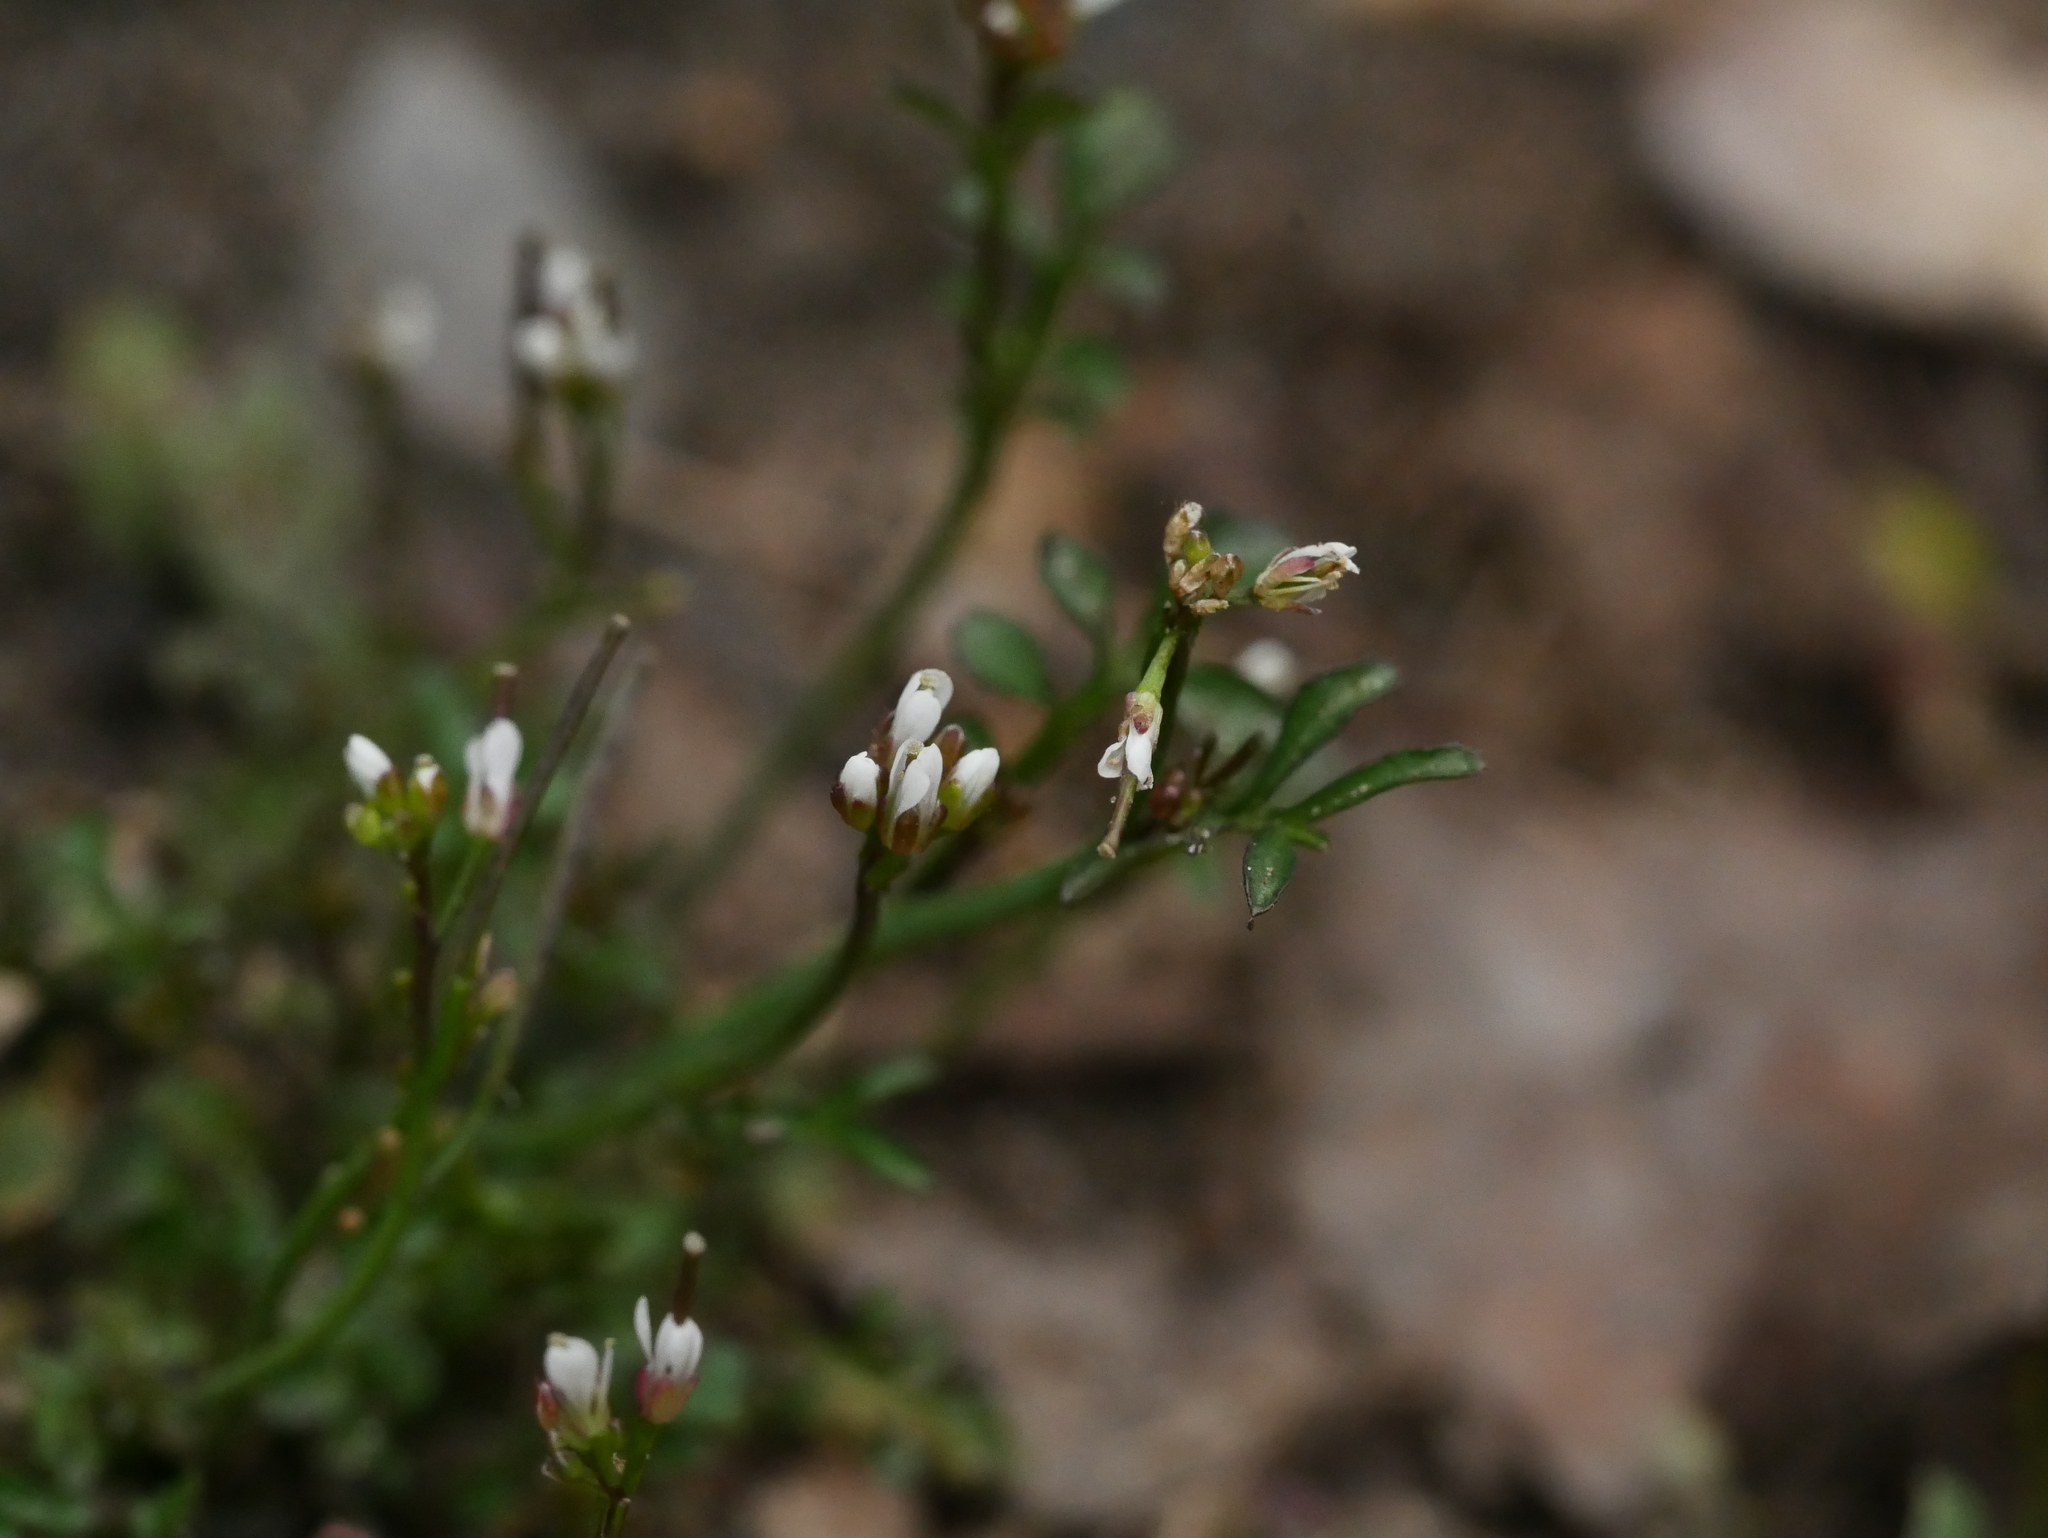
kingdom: Plantae
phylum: Tracheophyta
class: Magnoliopsida
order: Brassicales
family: Brassicaceae
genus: Cardamine
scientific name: Cardamine hirsuta
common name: Hairy bittercress
